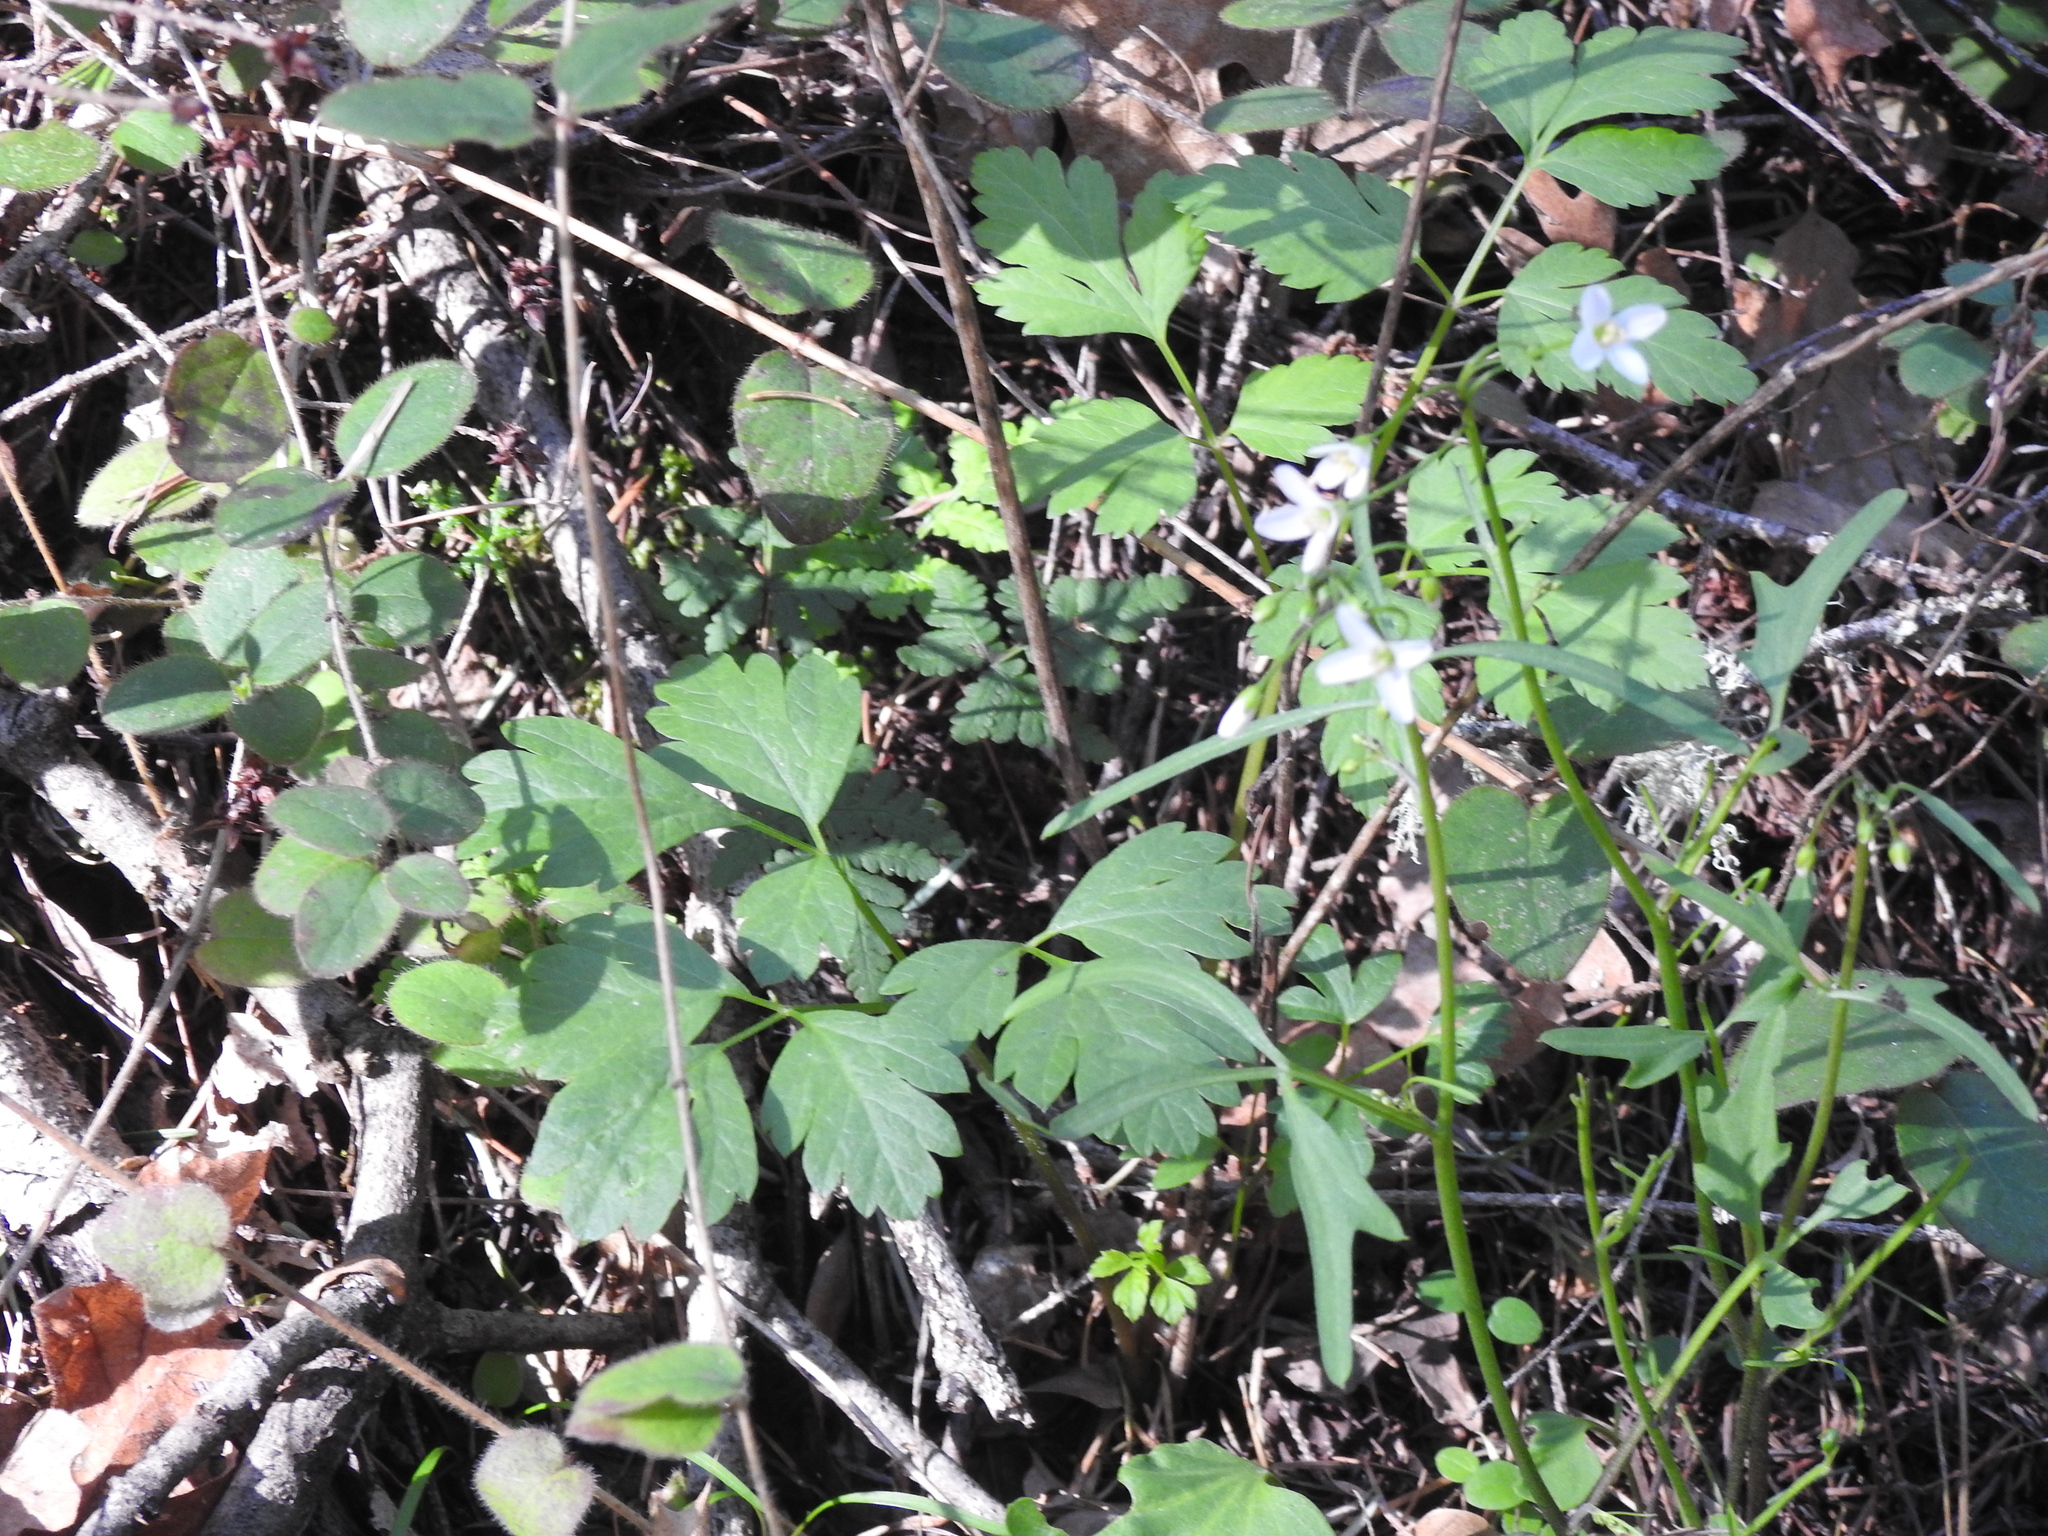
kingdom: Plantae
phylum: Tracheophyta
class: Magnoliopsida
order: Brassicales
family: Brassicaceae
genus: Cardamine
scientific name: Cardamine californica
